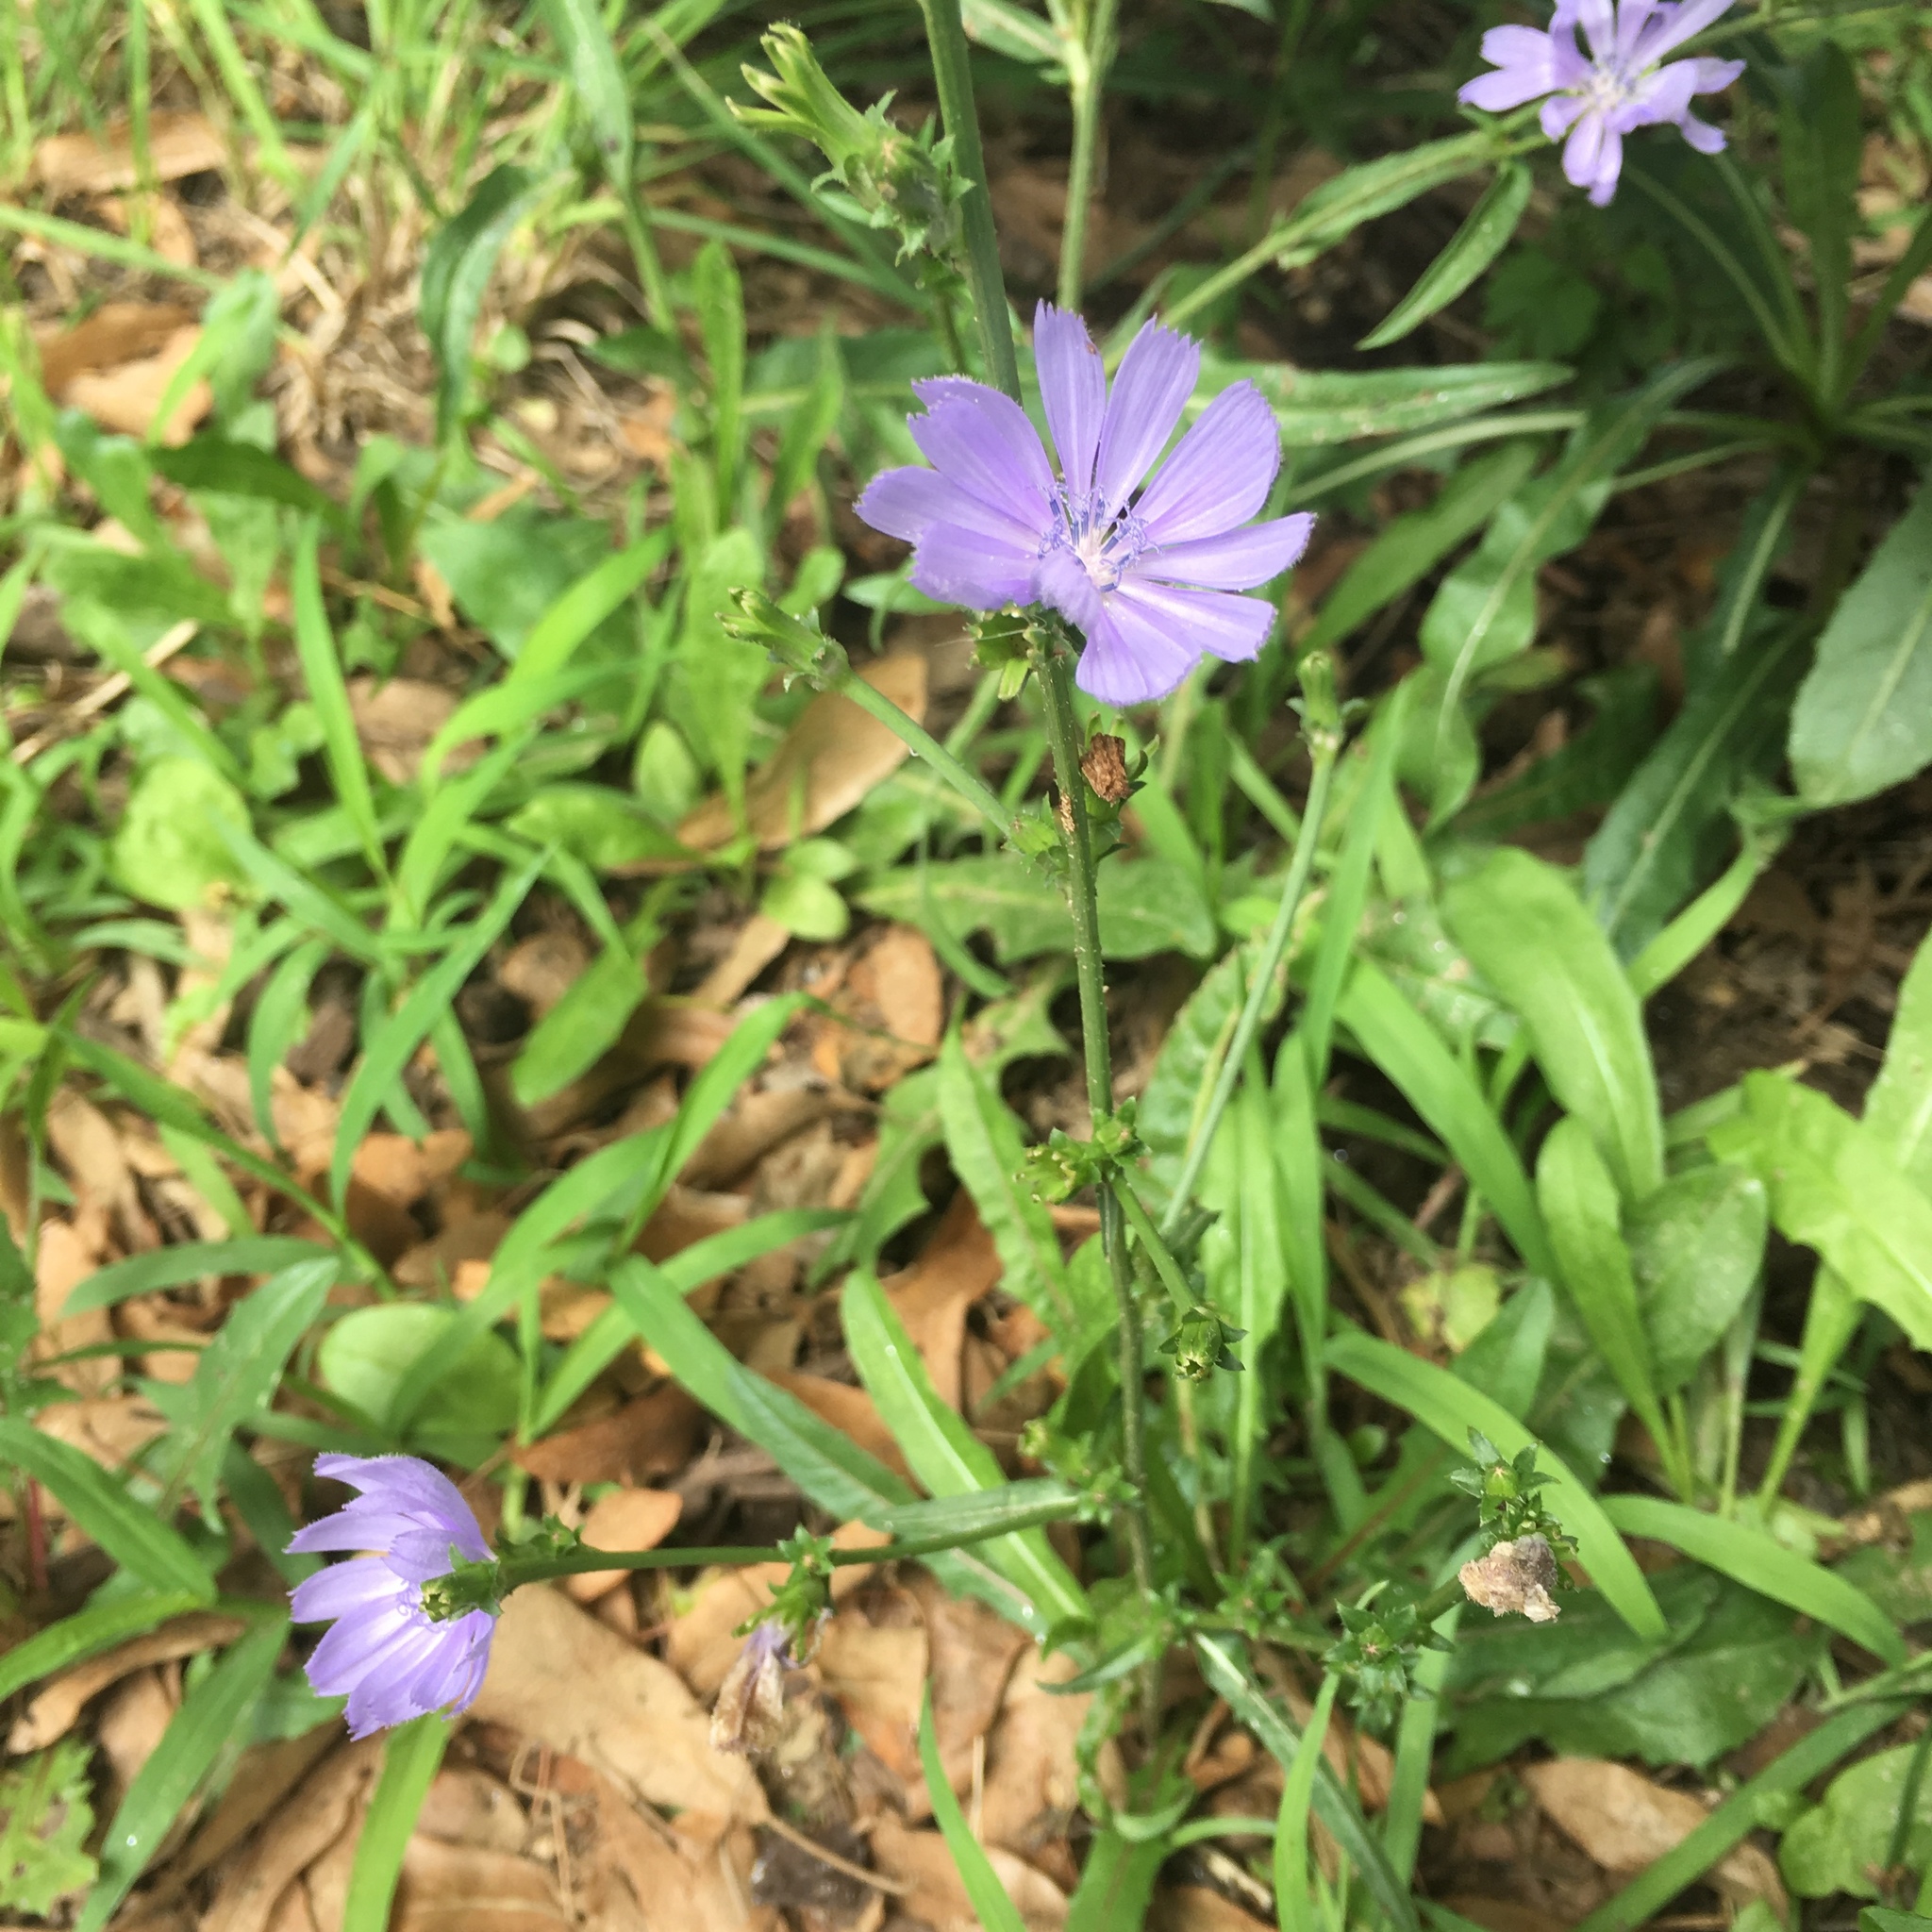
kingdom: Plantae
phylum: Tracheophyta
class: Magnoliopsida
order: Asterales
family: Asteraceae
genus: Cichorium
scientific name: Cichorium intybus
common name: Chicory
